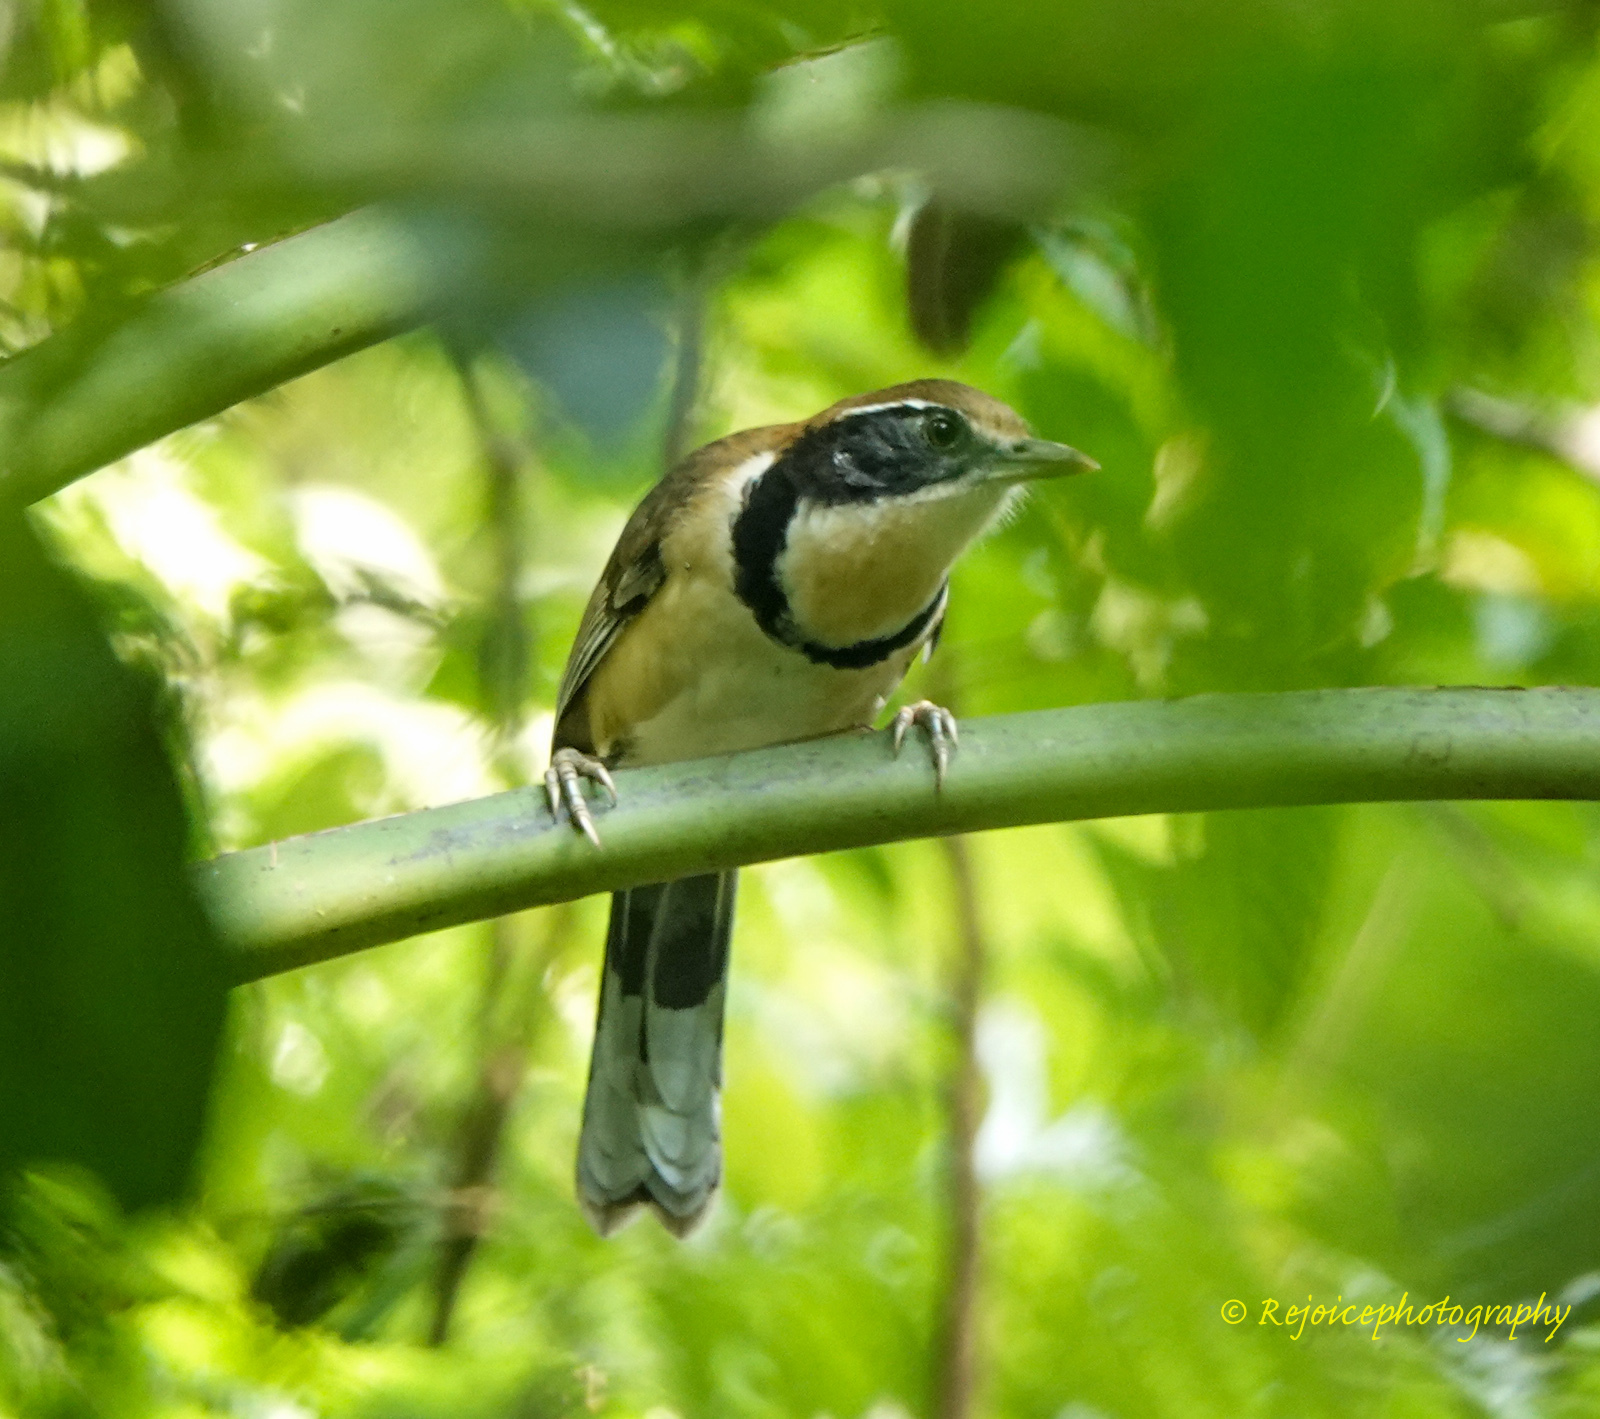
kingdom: Animalia
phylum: Chordata
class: Aves
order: Passeriformes
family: Leiothrichidae
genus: Garrulax
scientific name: Garrulax pectoralis
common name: Greater necklaced laughingthrush
